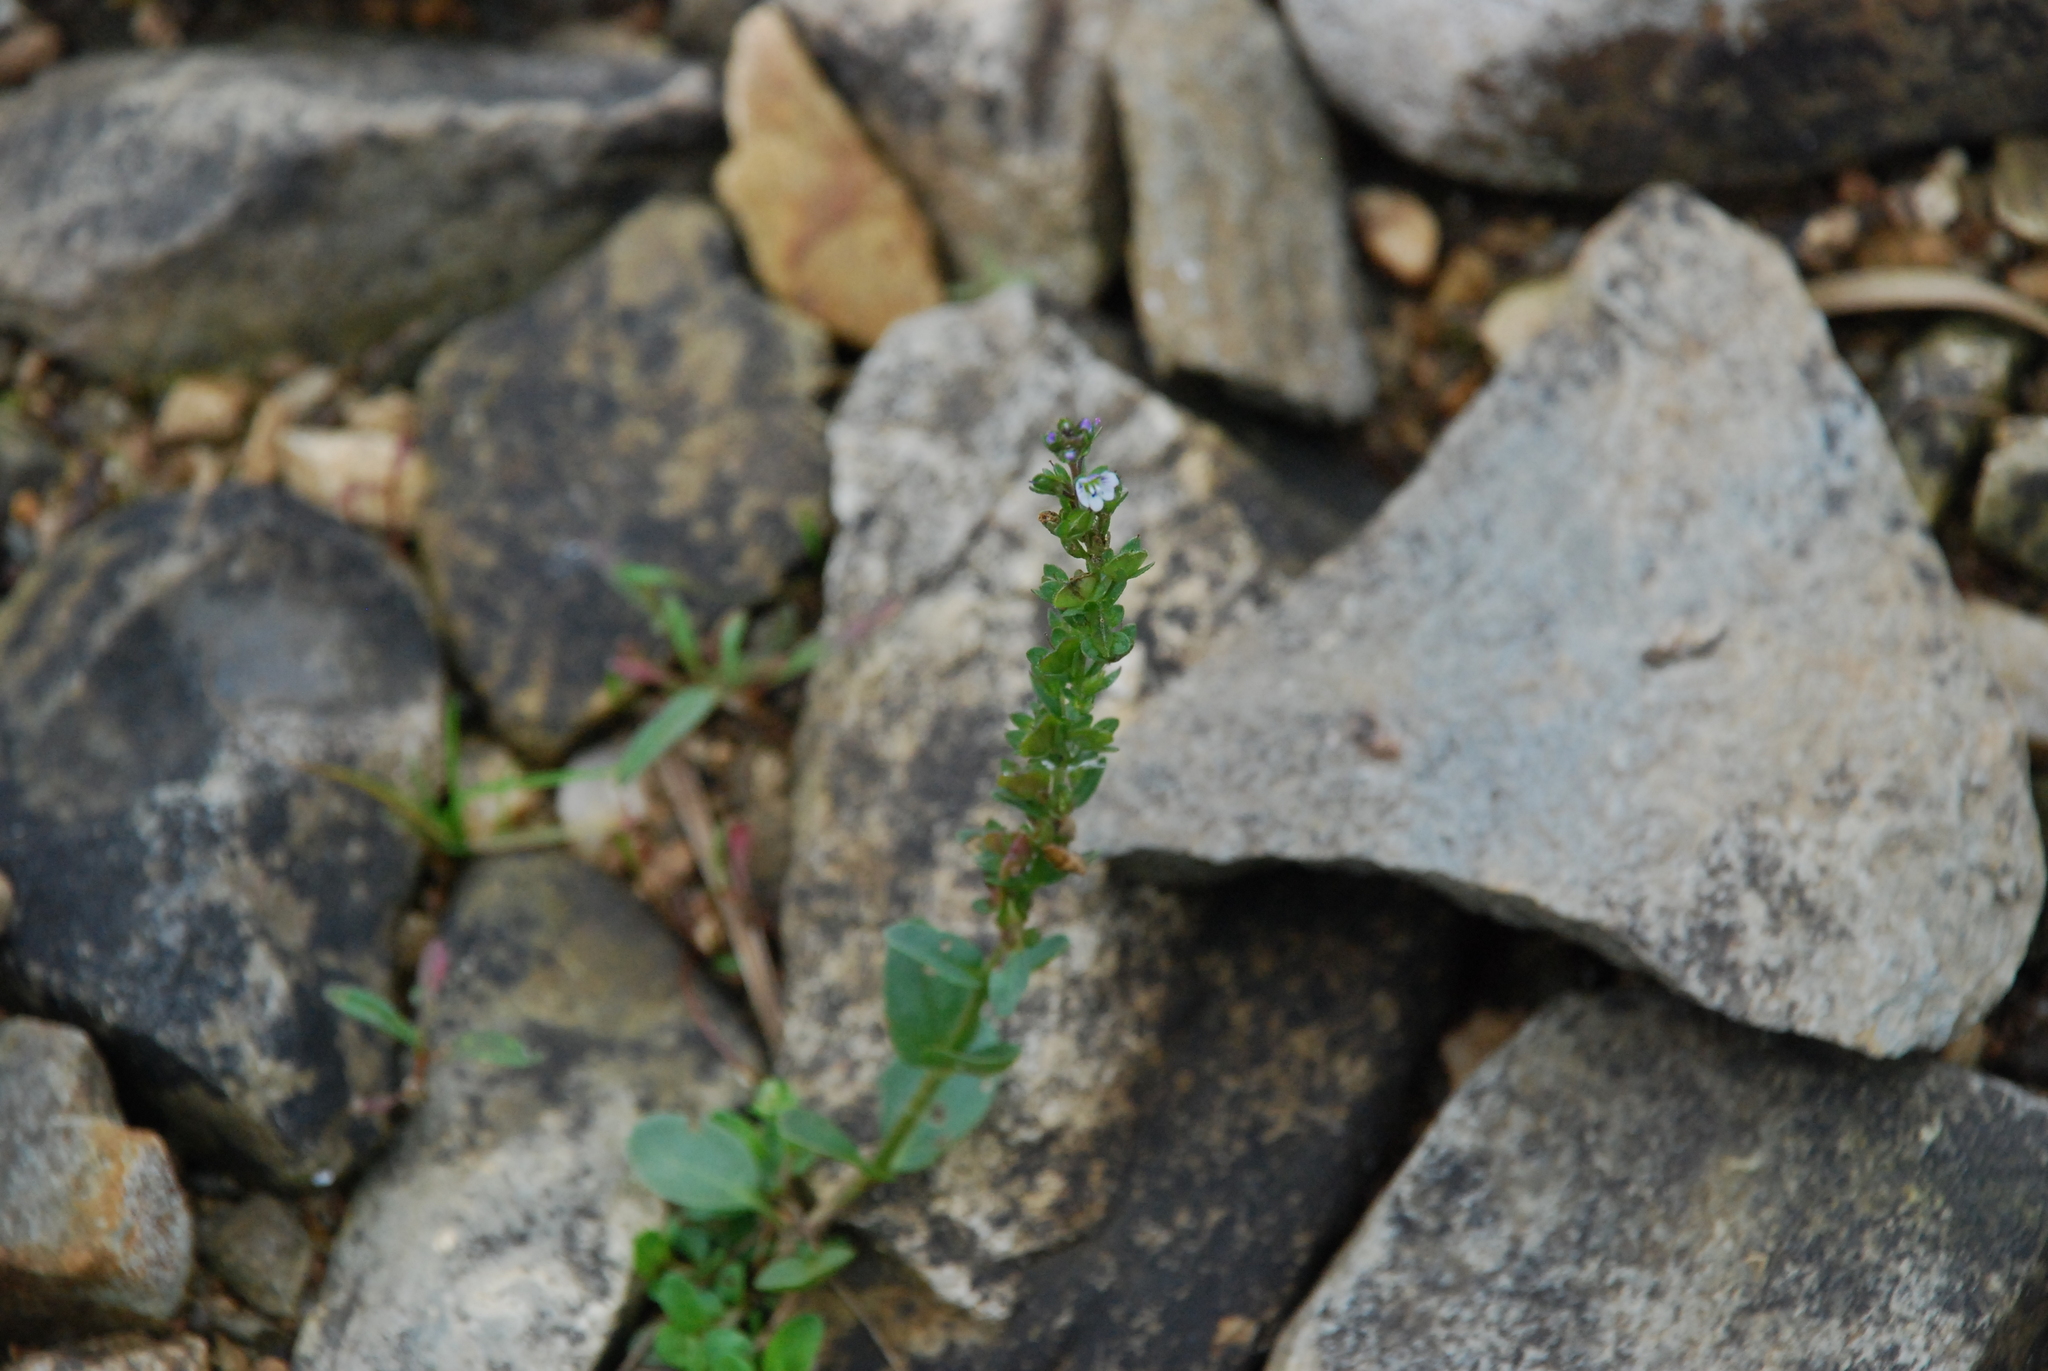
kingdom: Plantae
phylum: Tracheophyta
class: Magnoliopsida
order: Lamiales
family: Plantaginaceae
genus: Veronica
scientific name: Veronica serpyllifolia
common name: Thyme-leaved speedwell
